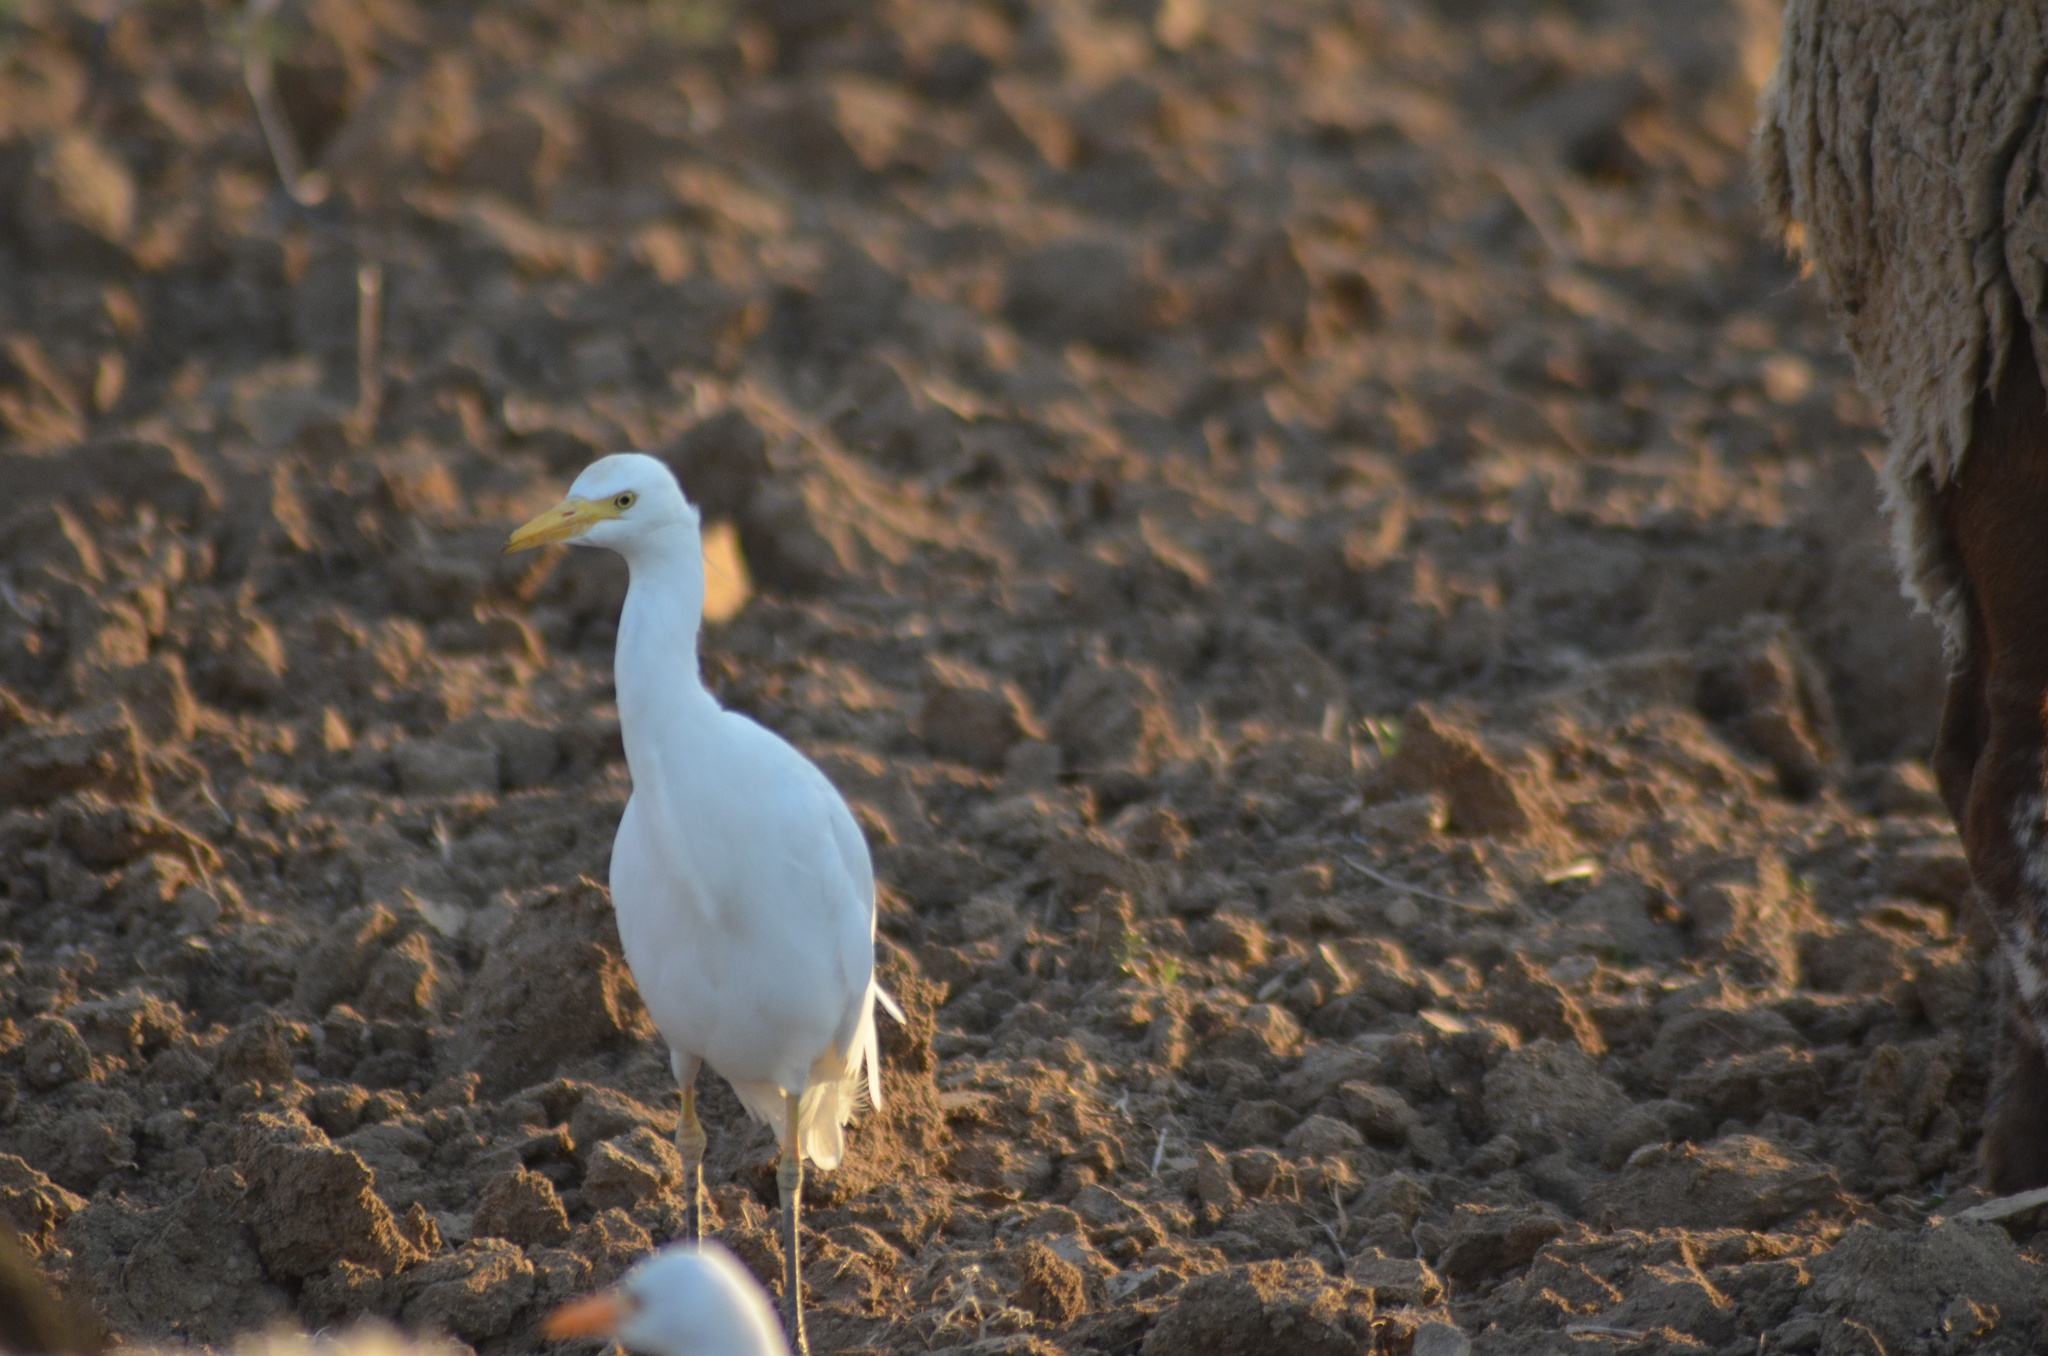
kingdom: Animalia
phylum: Chordata
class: Aves
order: Pelecaniformes
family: Ardeidae
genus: Bubulcus
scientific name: Bubulcus ibis
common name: Cattle egret
